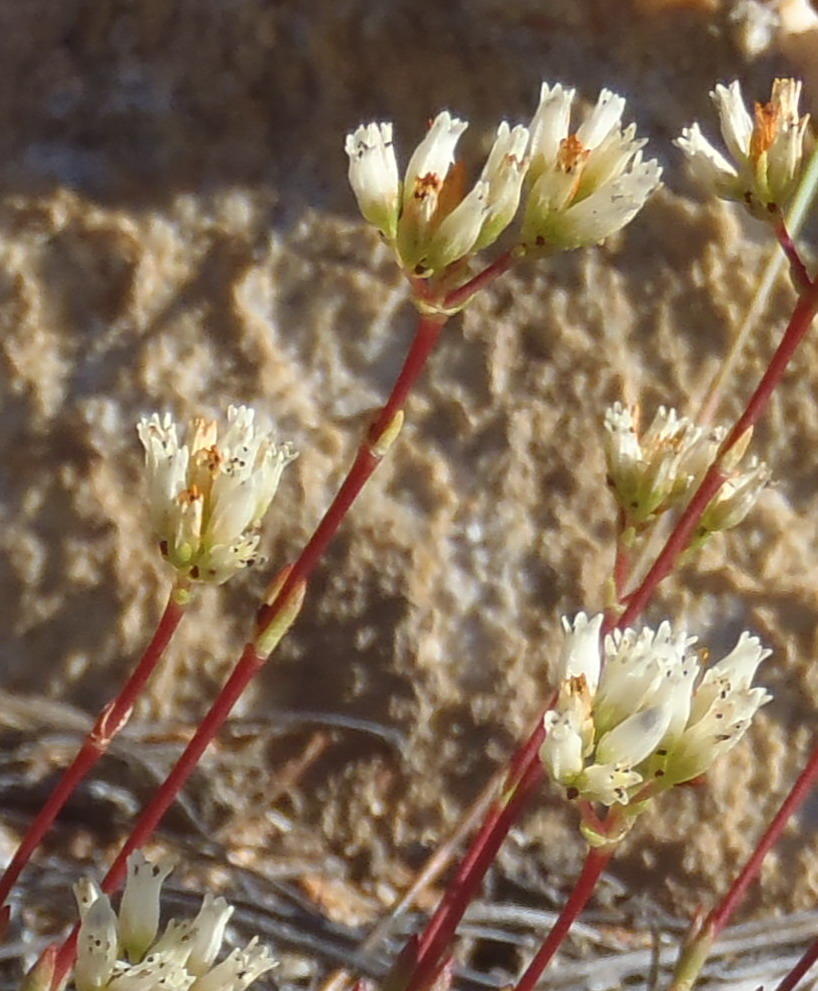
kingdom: Plantae
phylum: Tracheophyta
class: Magnoliopsida
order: Saxifragales
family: Crassulaceae
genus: Crassula
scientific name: Crassula biplanata
